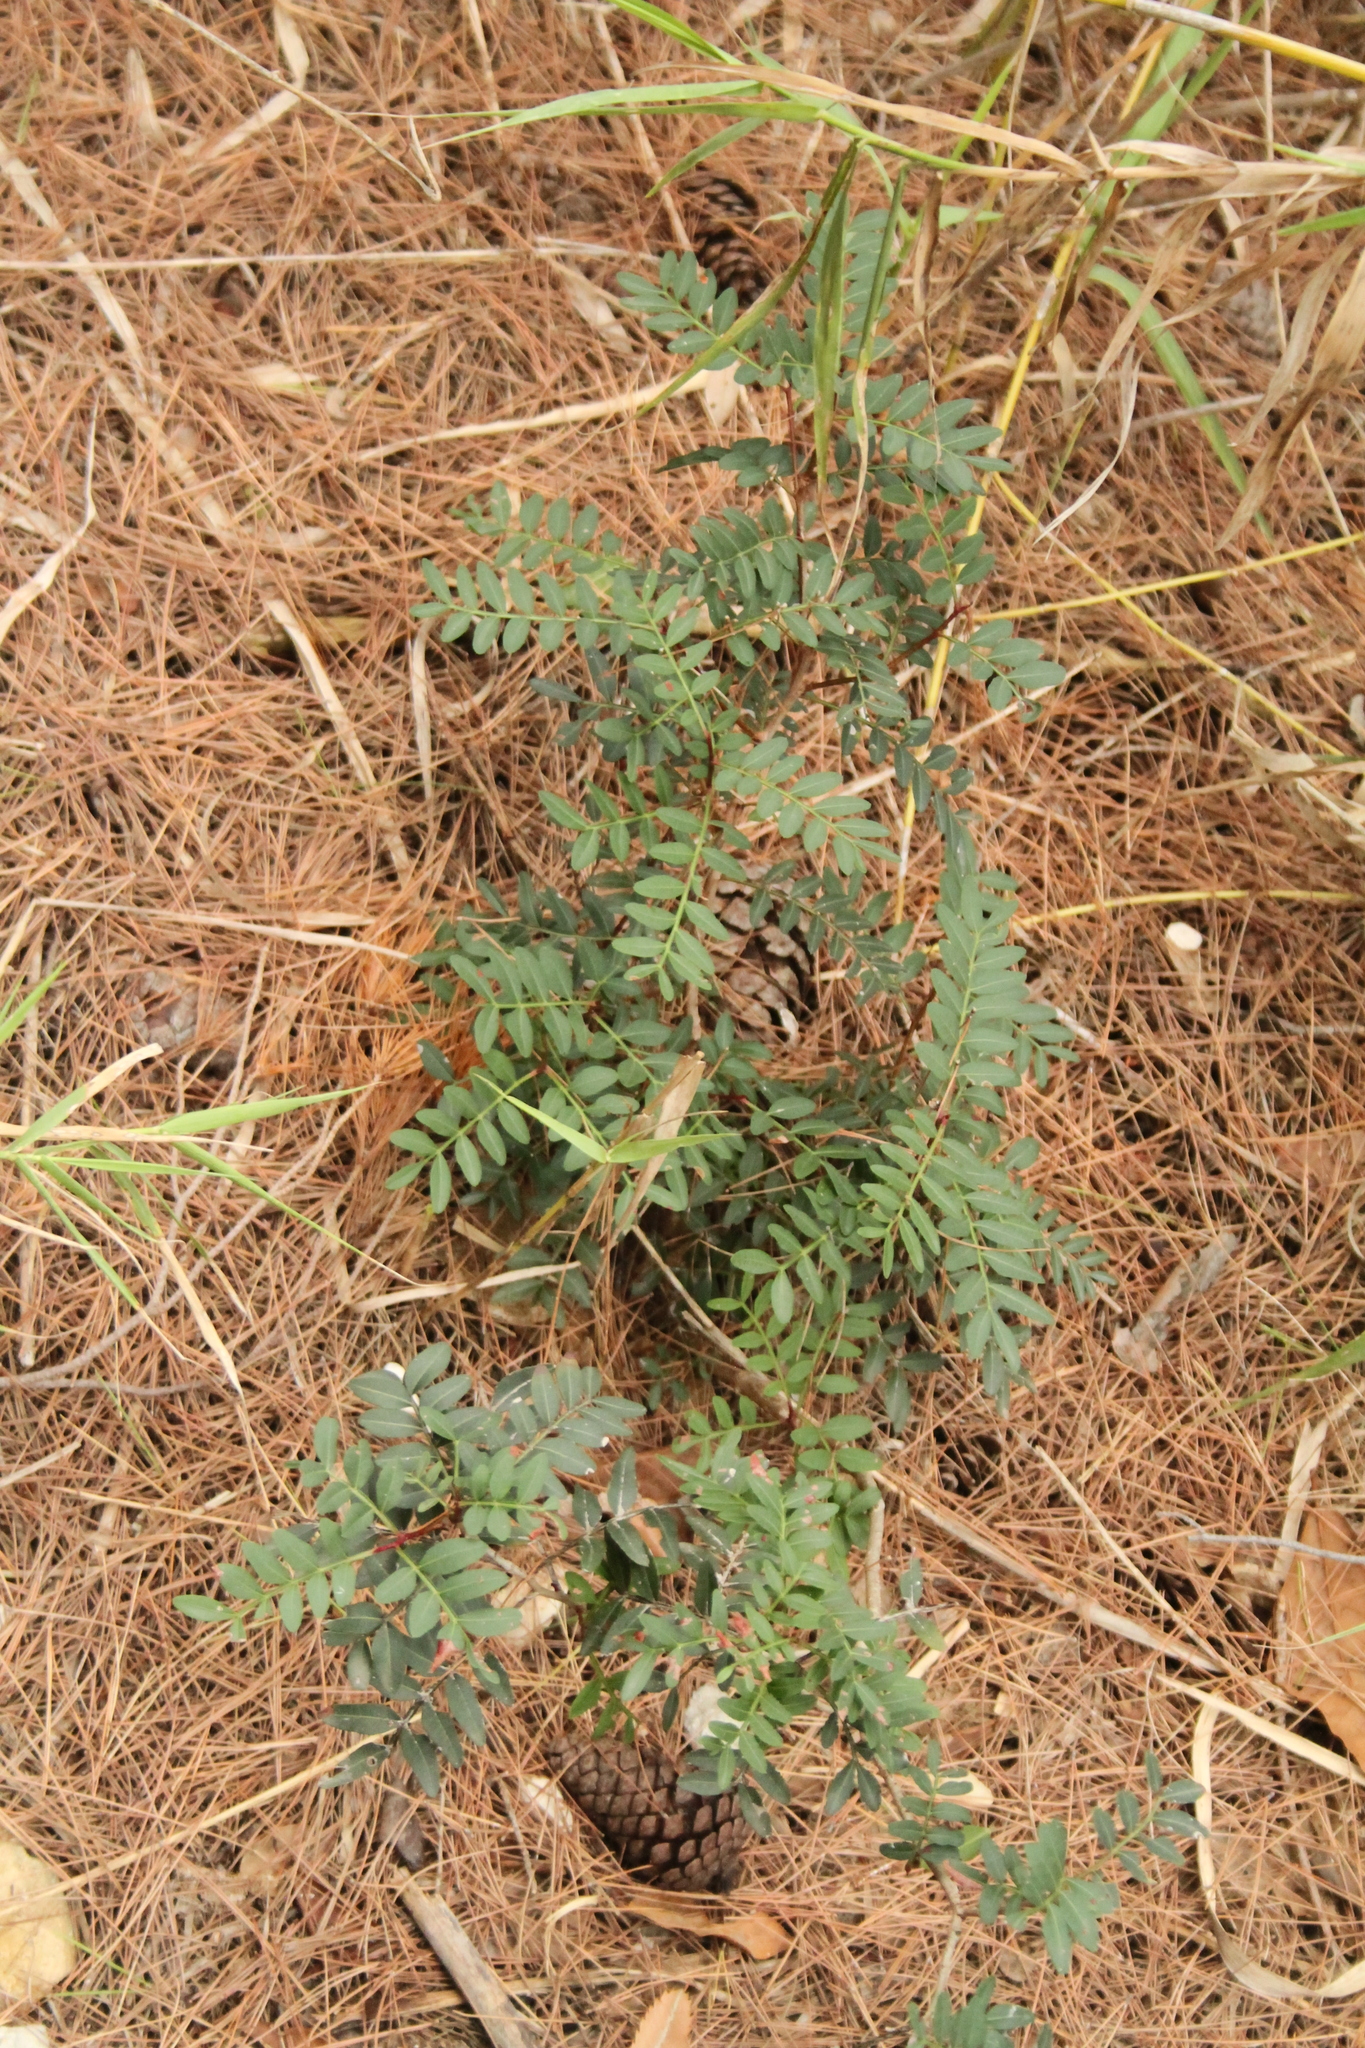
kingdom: Plantae
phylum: Tracheophyta
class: Magnoliopsida
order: Sapindales
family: Anacardiaceae
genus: Pistacia
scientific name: Pistacia lentiscus
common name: Lentisk
